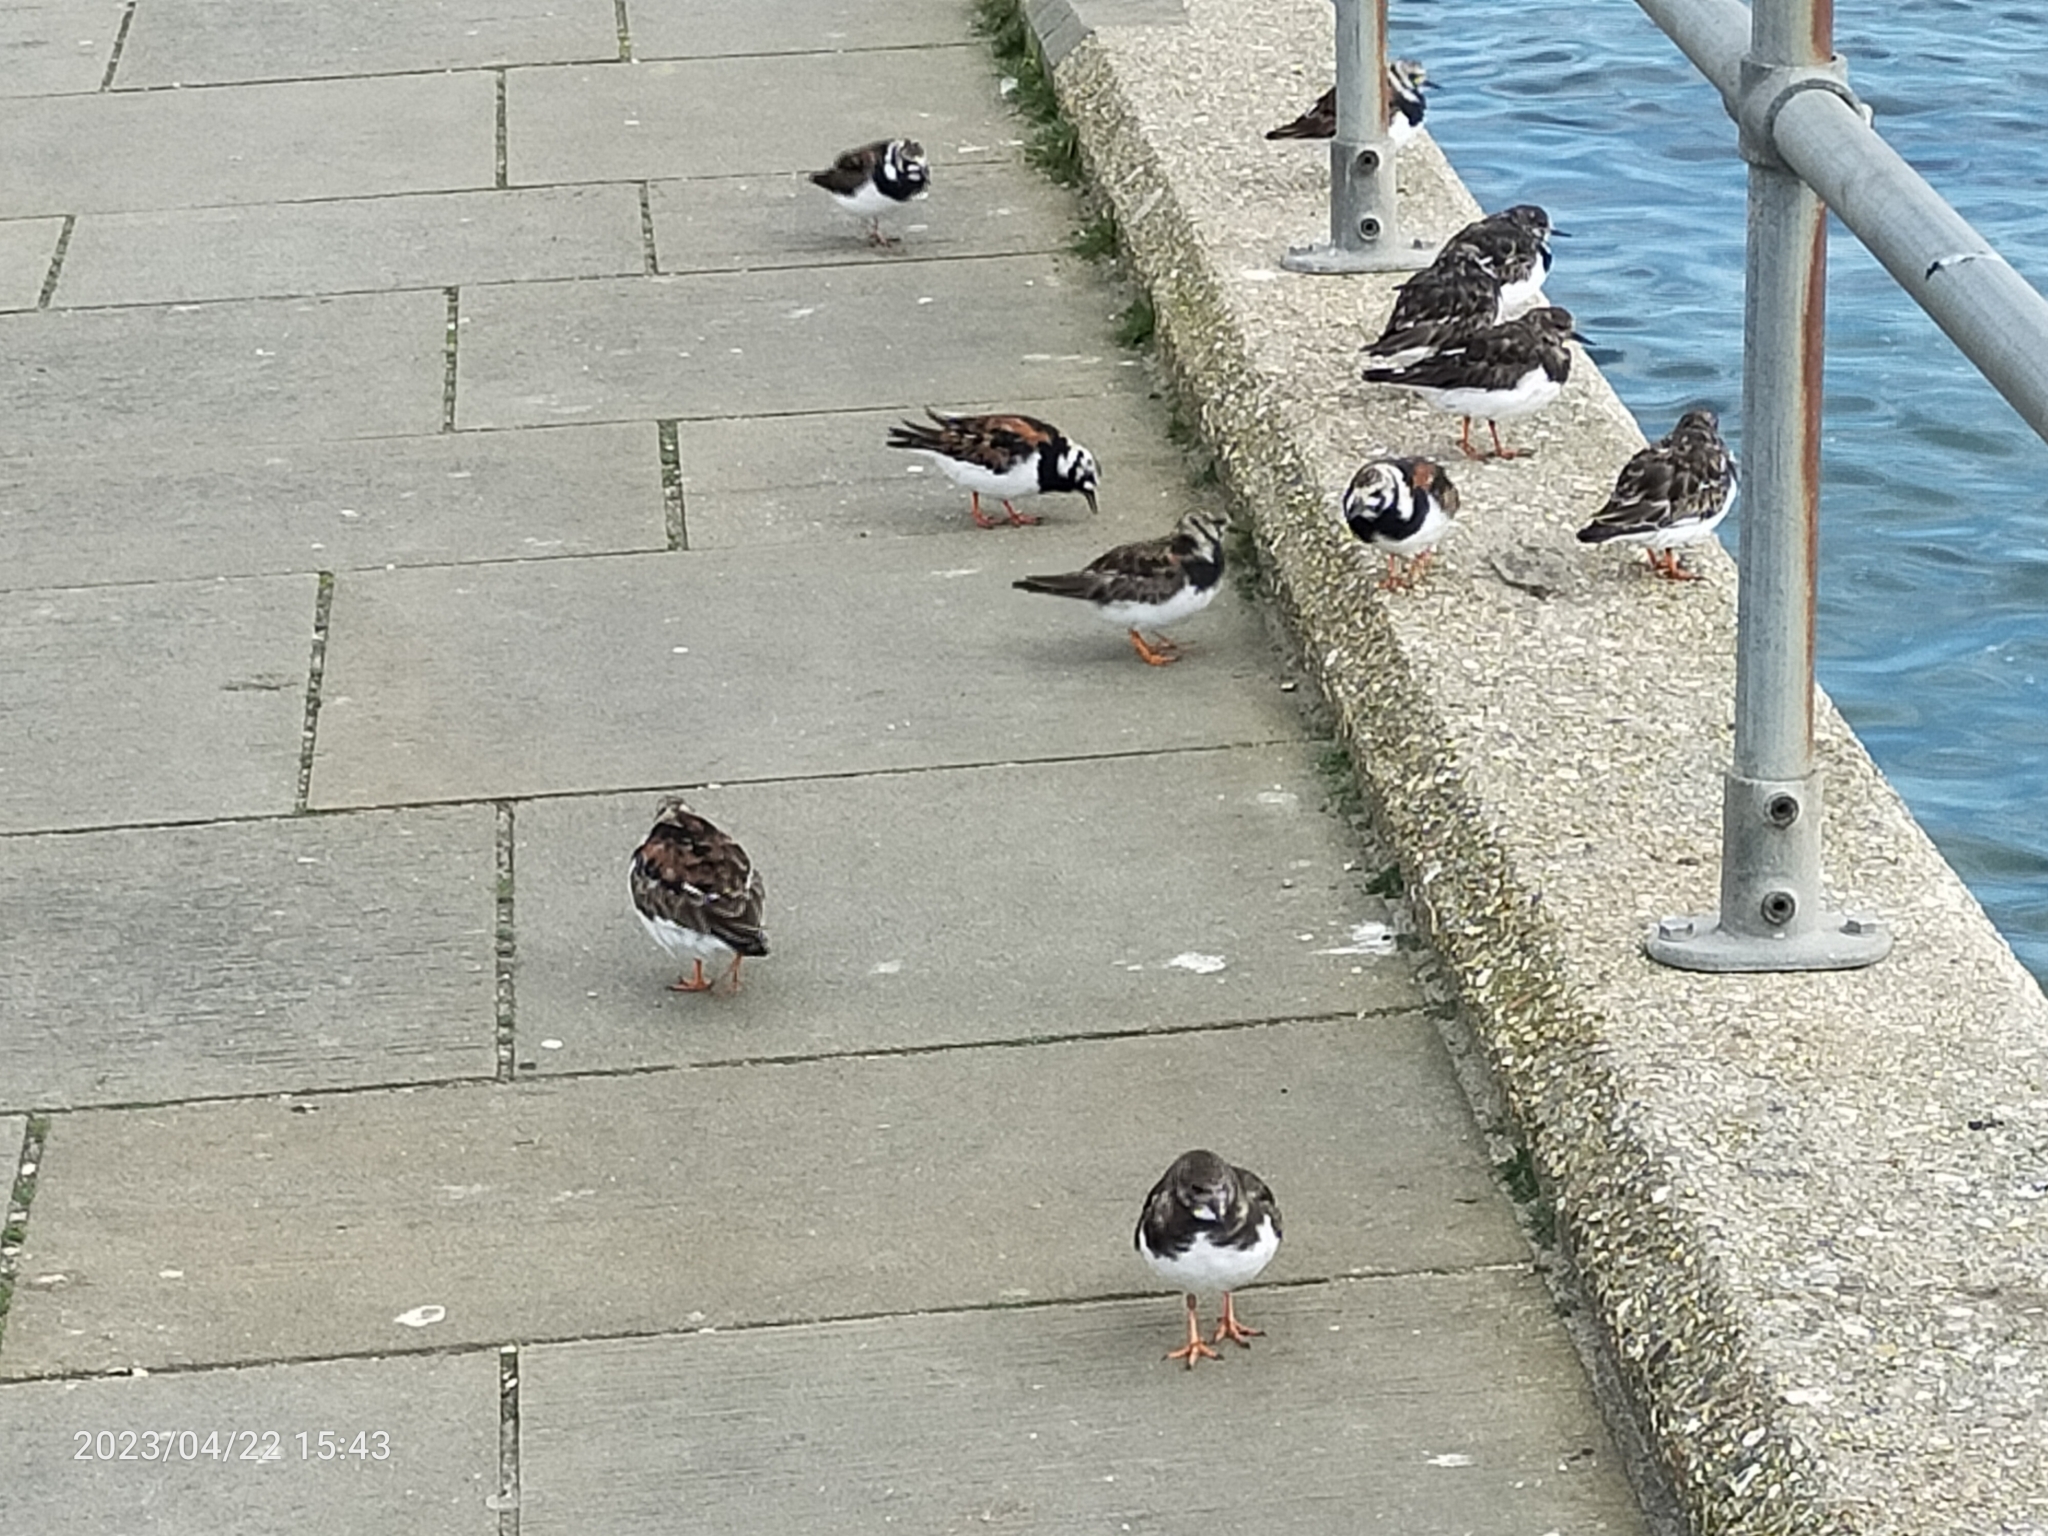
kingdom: Animalia
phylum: Chordata
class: Aves
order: Charadriiformes
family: Scolopacidae
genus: Arenaria
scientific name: Arenaria interpres
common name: Ruddy turnstone
